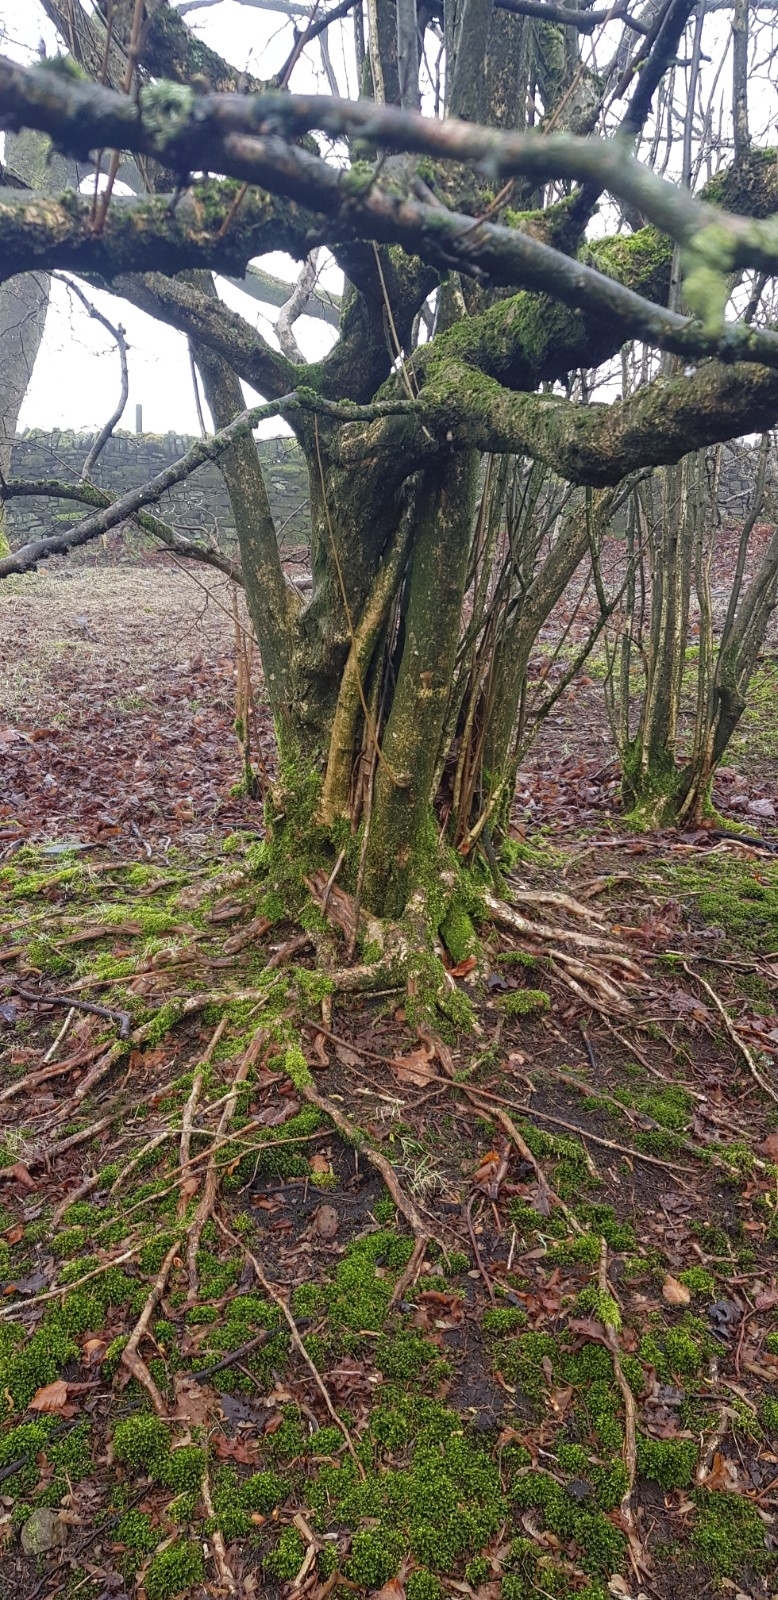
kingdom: Plantae
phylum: Bryophyta
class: Bryopsida
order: Orthotrichales
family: Orthotrichaceae
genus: Orthotrichum
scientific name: Orthotrichum pulchellum
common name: Elegant bristle-moss
